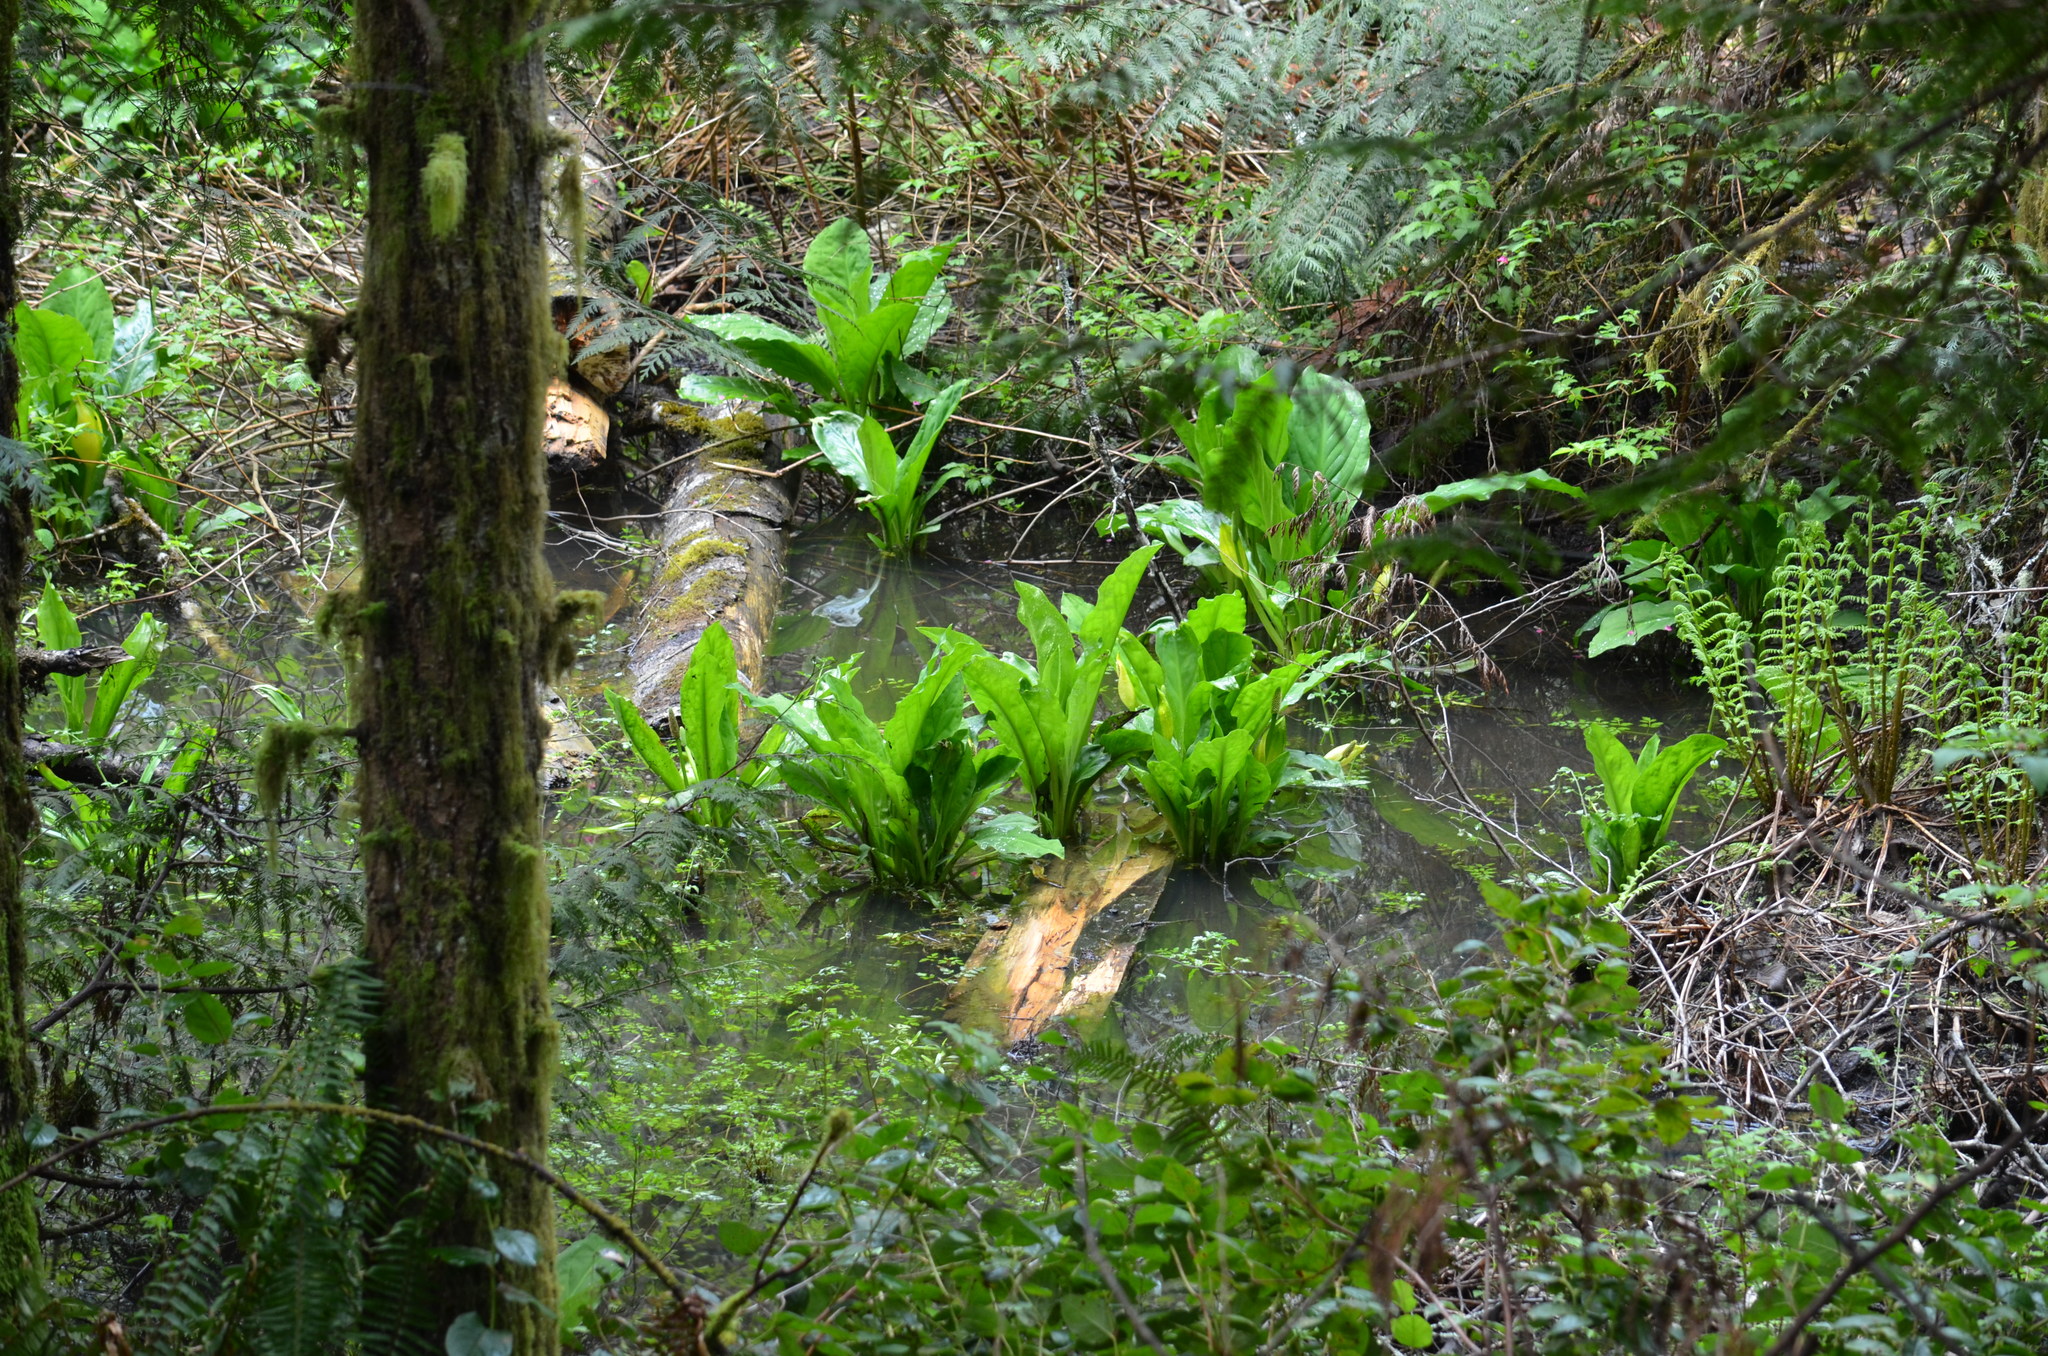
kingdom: Plantae
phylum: Tracheophyta
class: Liliopsida
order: Alismatales
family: Araceae
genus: Lysichiton
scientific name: Lysichiton americanus
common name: American skunk cabbage
